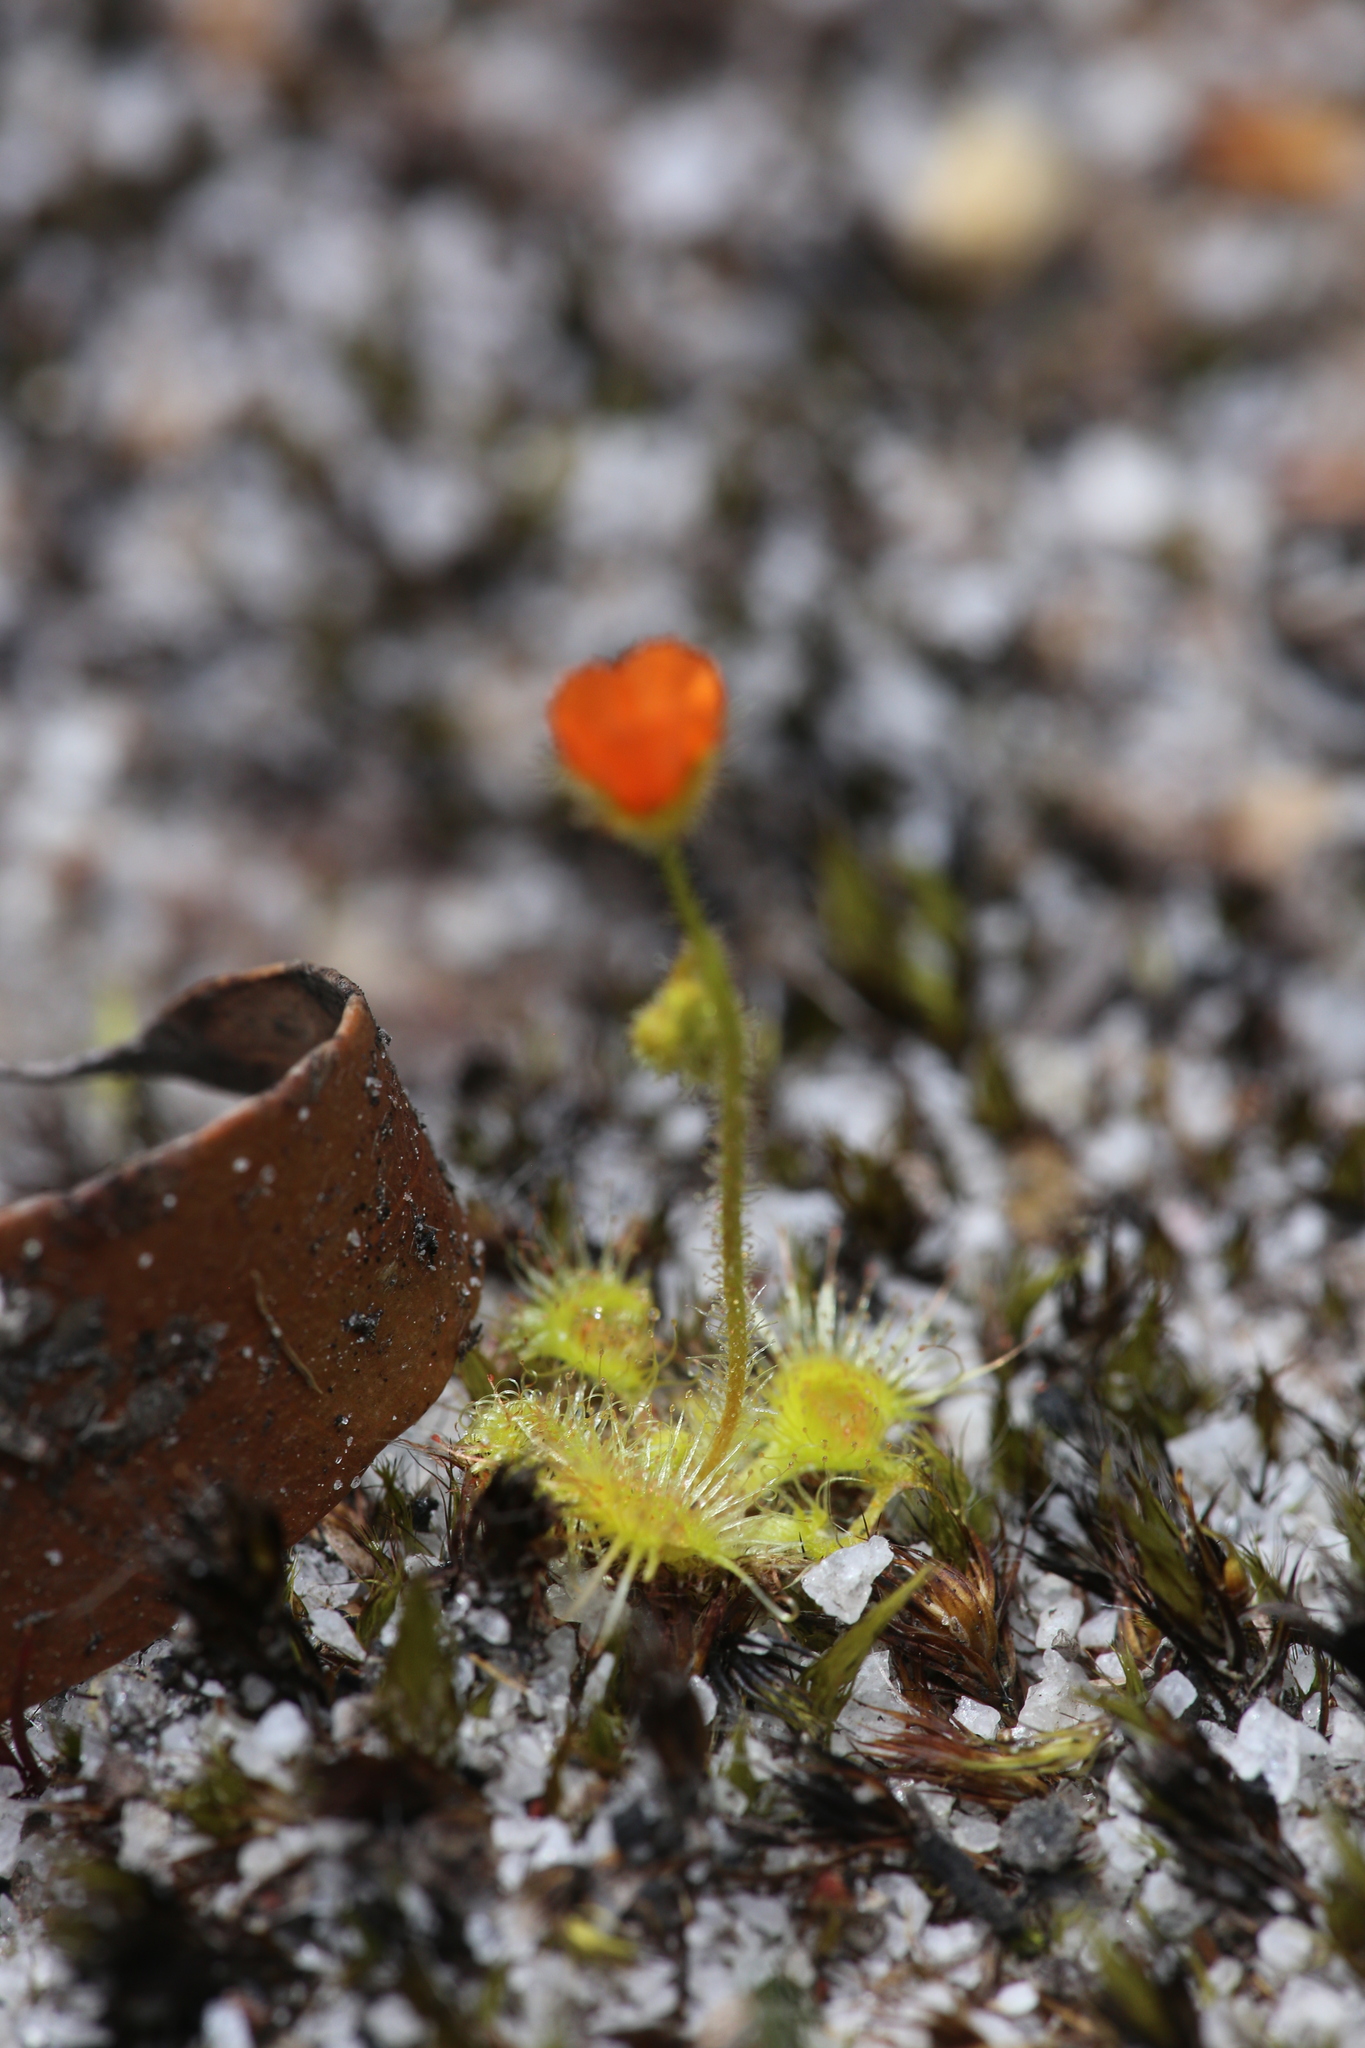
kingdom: Plantae
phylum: Tracheophyta
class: Magnoliopsida
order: Caryophyllales
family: Droseraceae
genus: Drosera
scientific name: Drosera glanduligera
